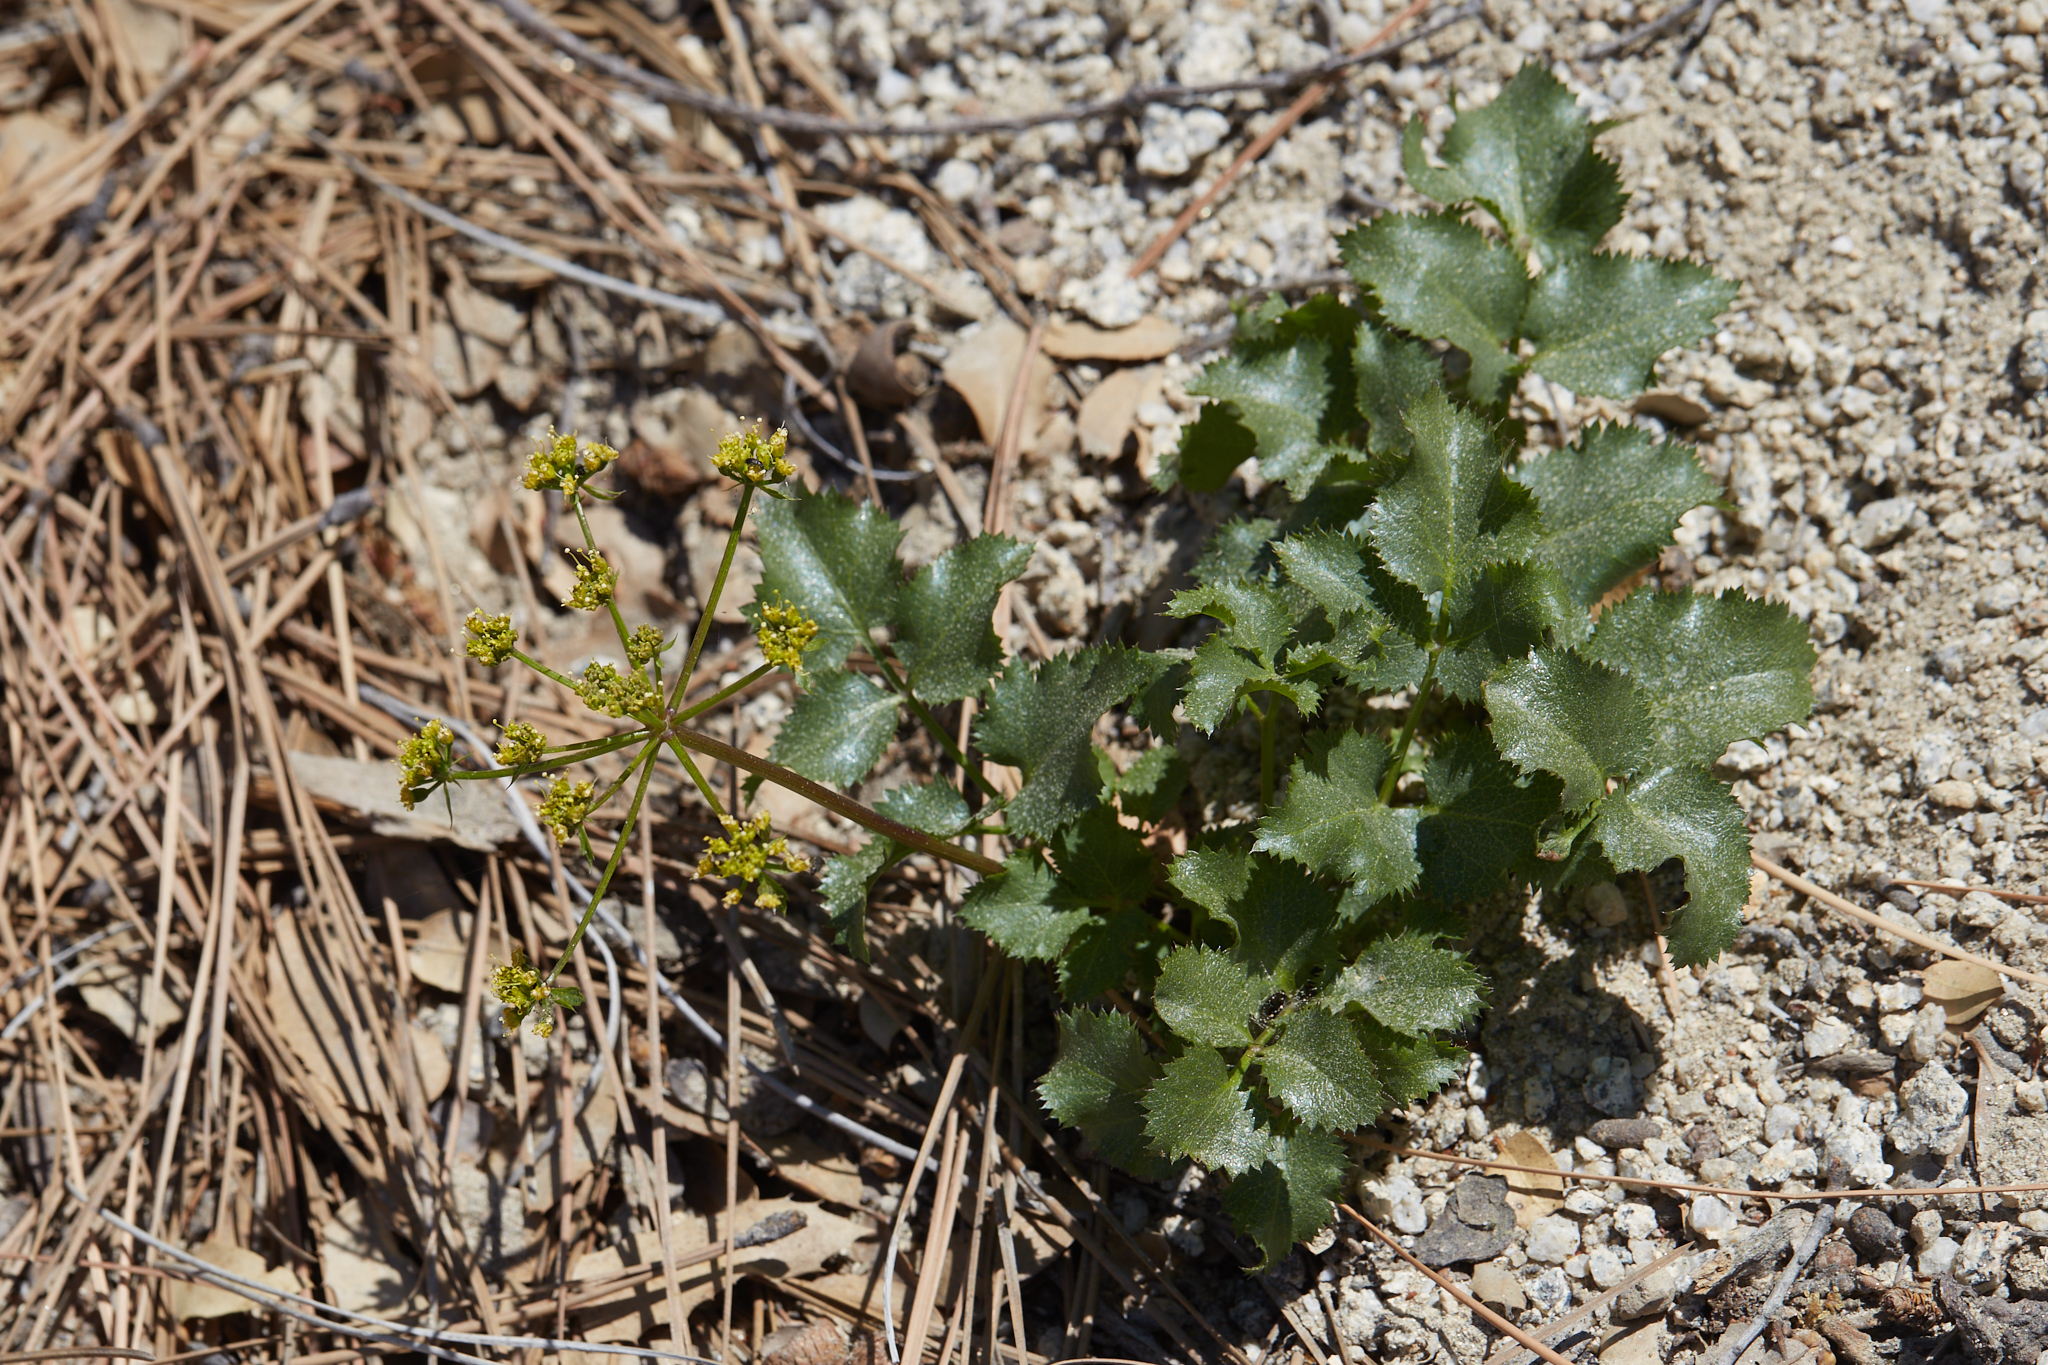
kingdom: Plantae
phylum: Tracheophyta
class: Magnoliopsida
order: Apiales
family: Apiaceae
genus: Tauschia
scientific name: Tauschia arguta
